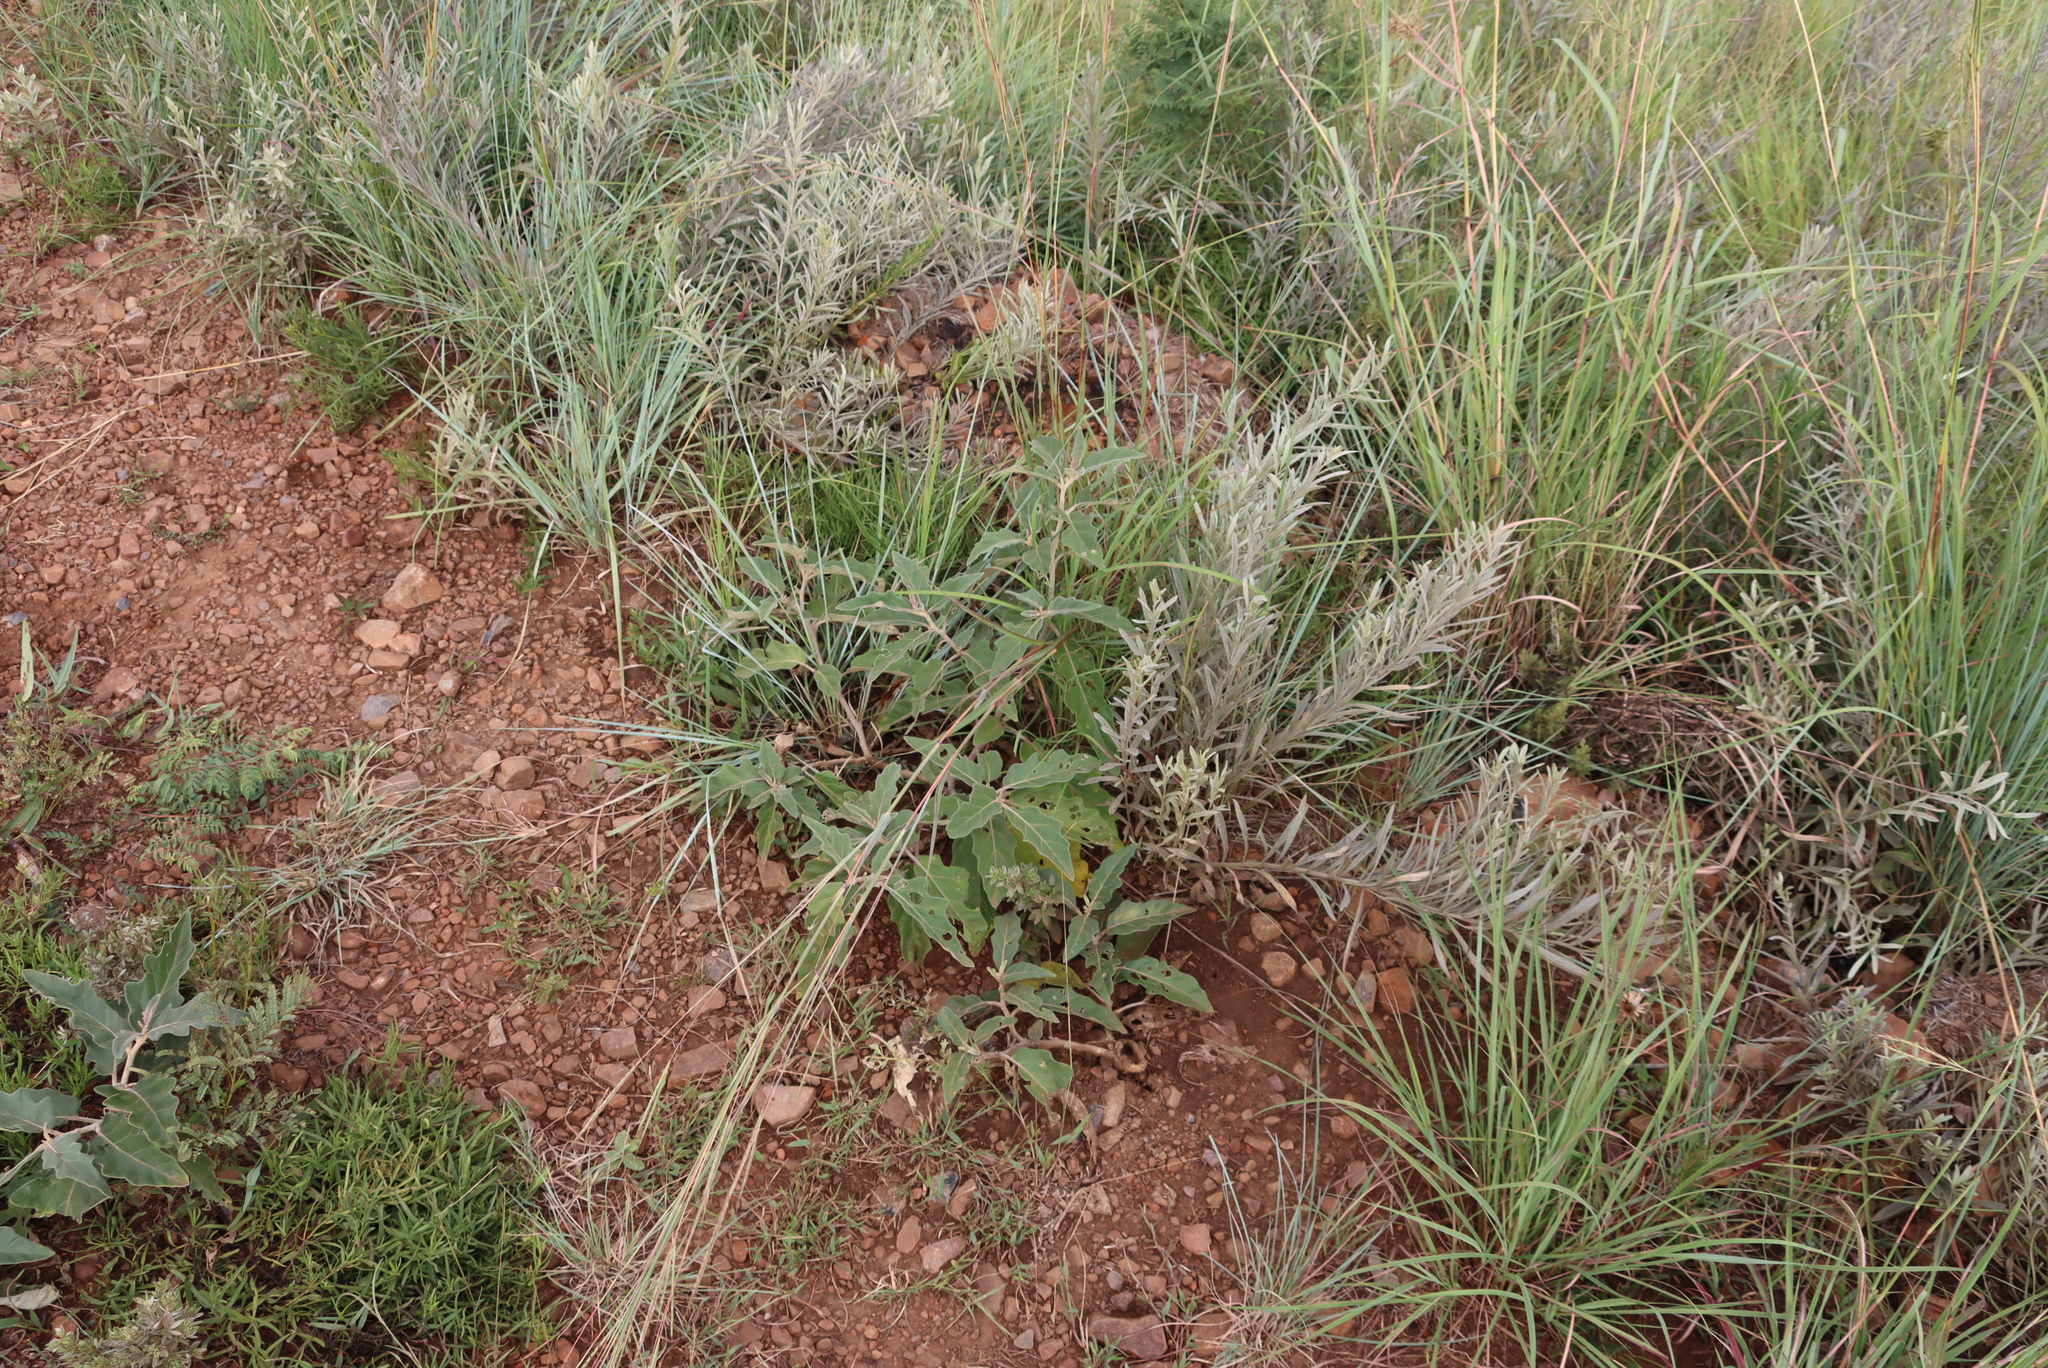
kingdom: Plantae
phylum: Tracheophyta
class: Magnoliopsida
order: Solanales
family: Solanaceae
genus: Solanum
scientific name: Solanum lichtensteinii
